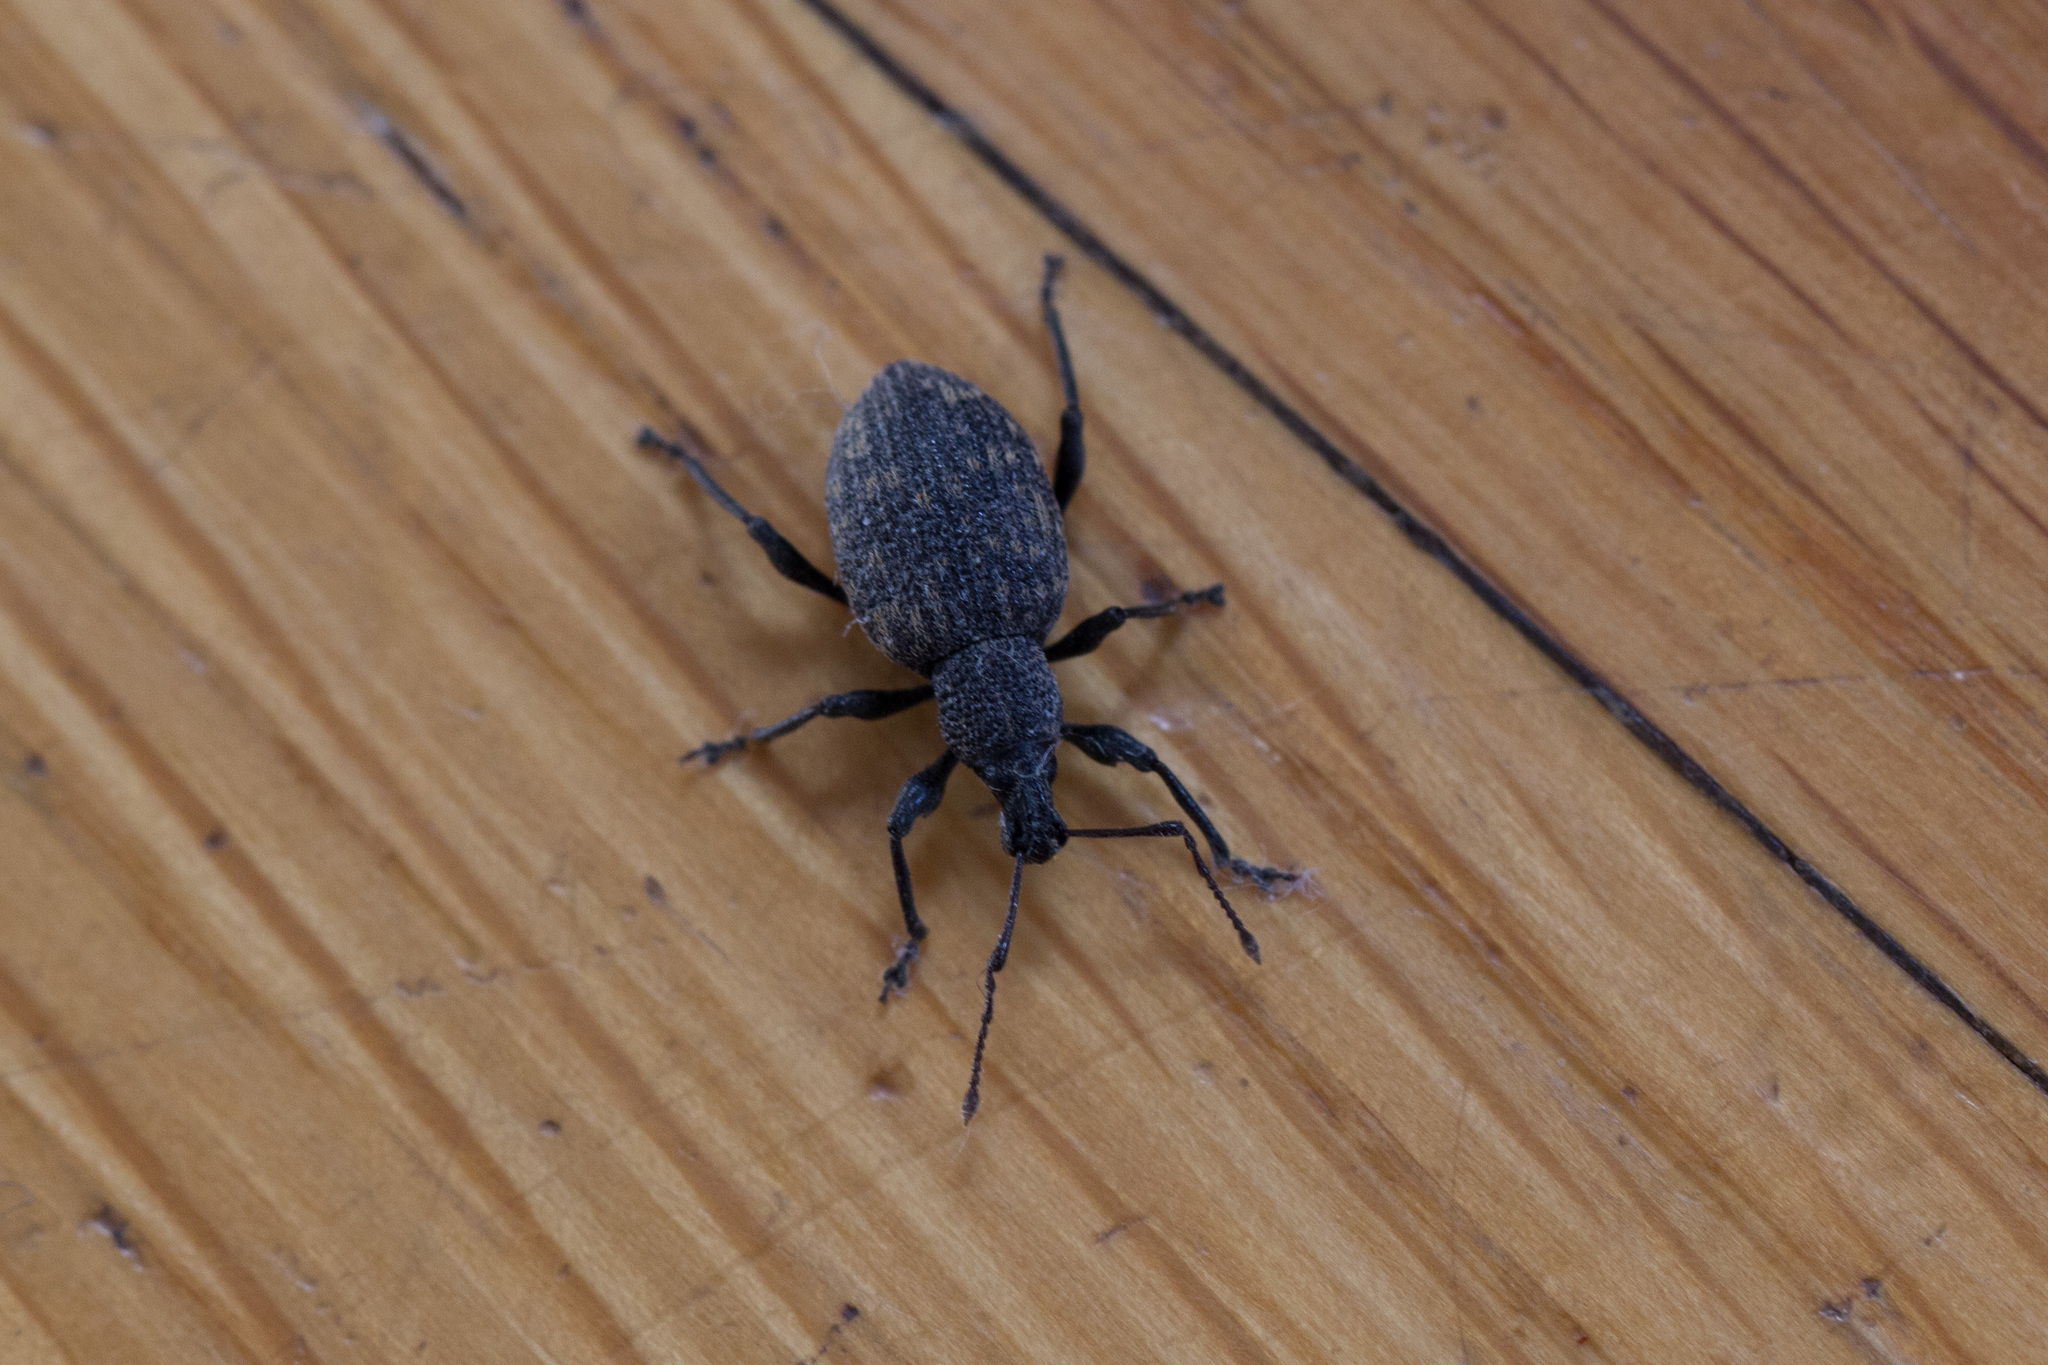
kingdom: Animalia
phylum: Arthropoda
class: Insecta
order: Coleoptera
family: Curculionidae
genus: Otiorhynchus
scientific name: Otiorhynchus sulcatus
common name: Black vine weevil
